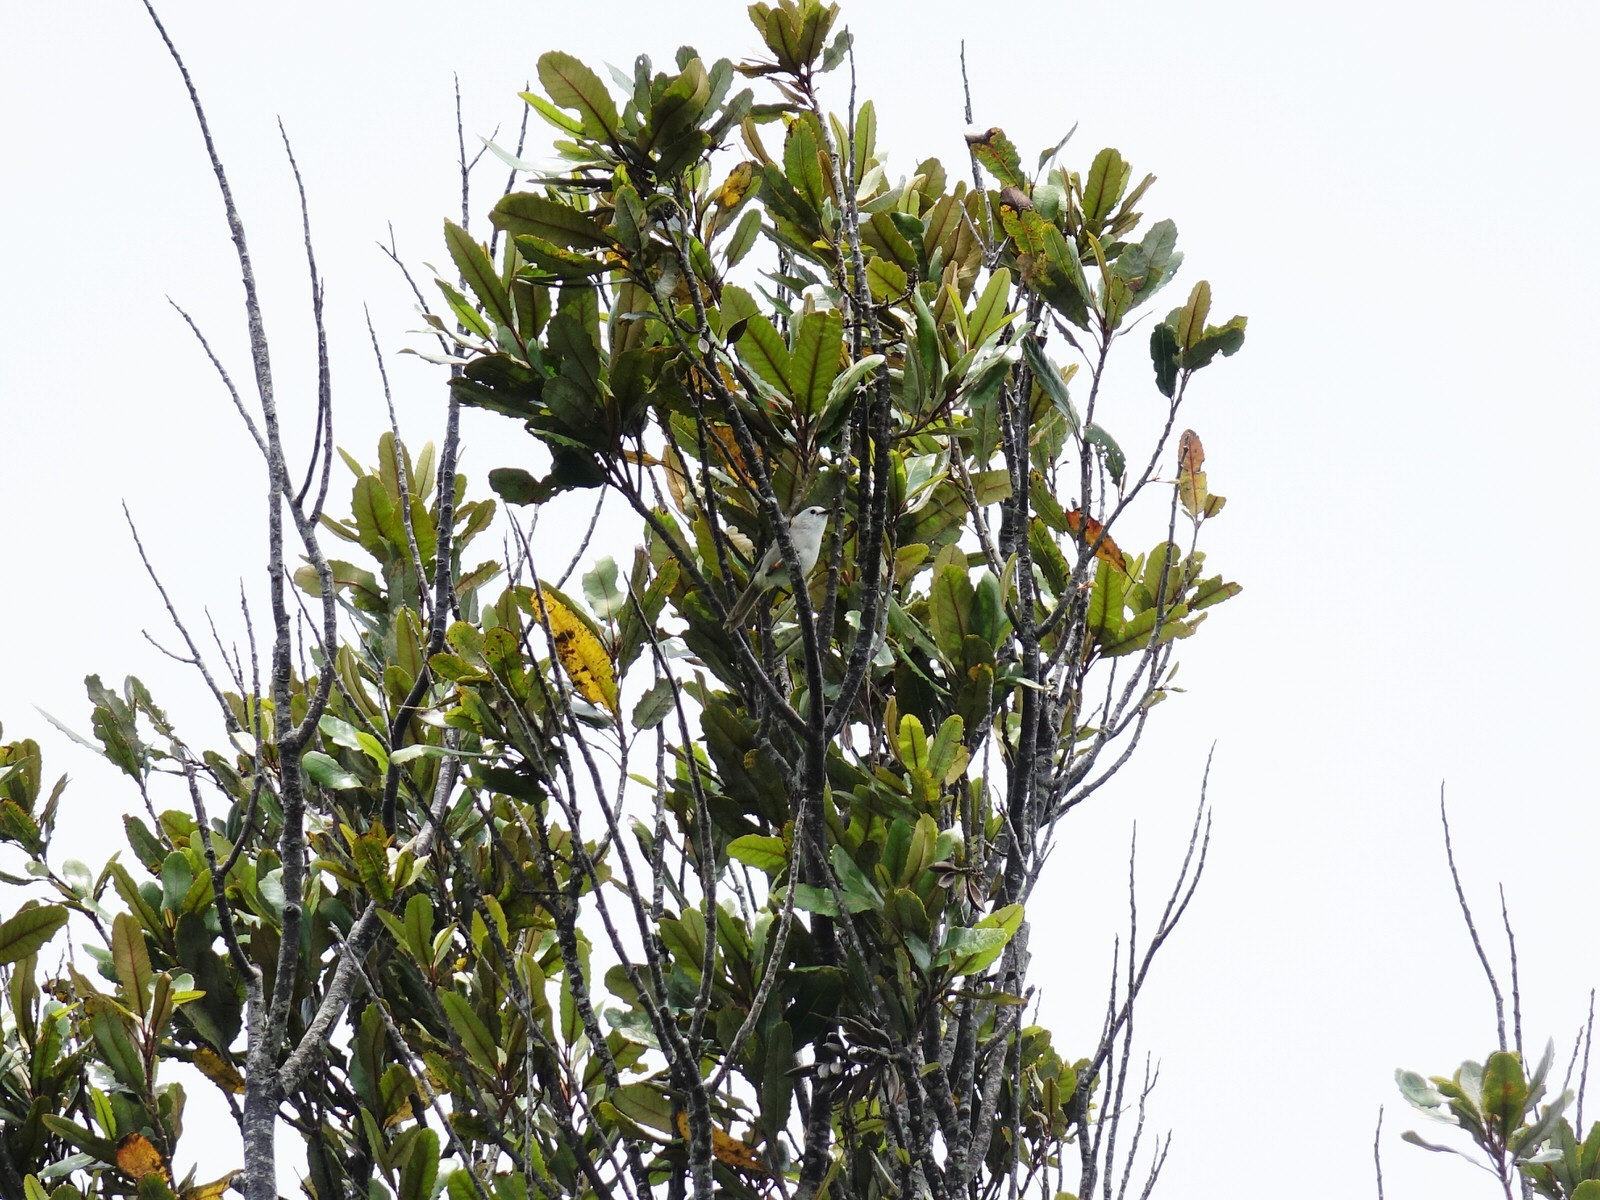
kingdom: Animalia
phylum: Chordata
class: Aves
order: Passeriformes
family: Acanthizidae
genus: Mohoua
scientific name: Mohoua albicilla
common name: Whitehead
